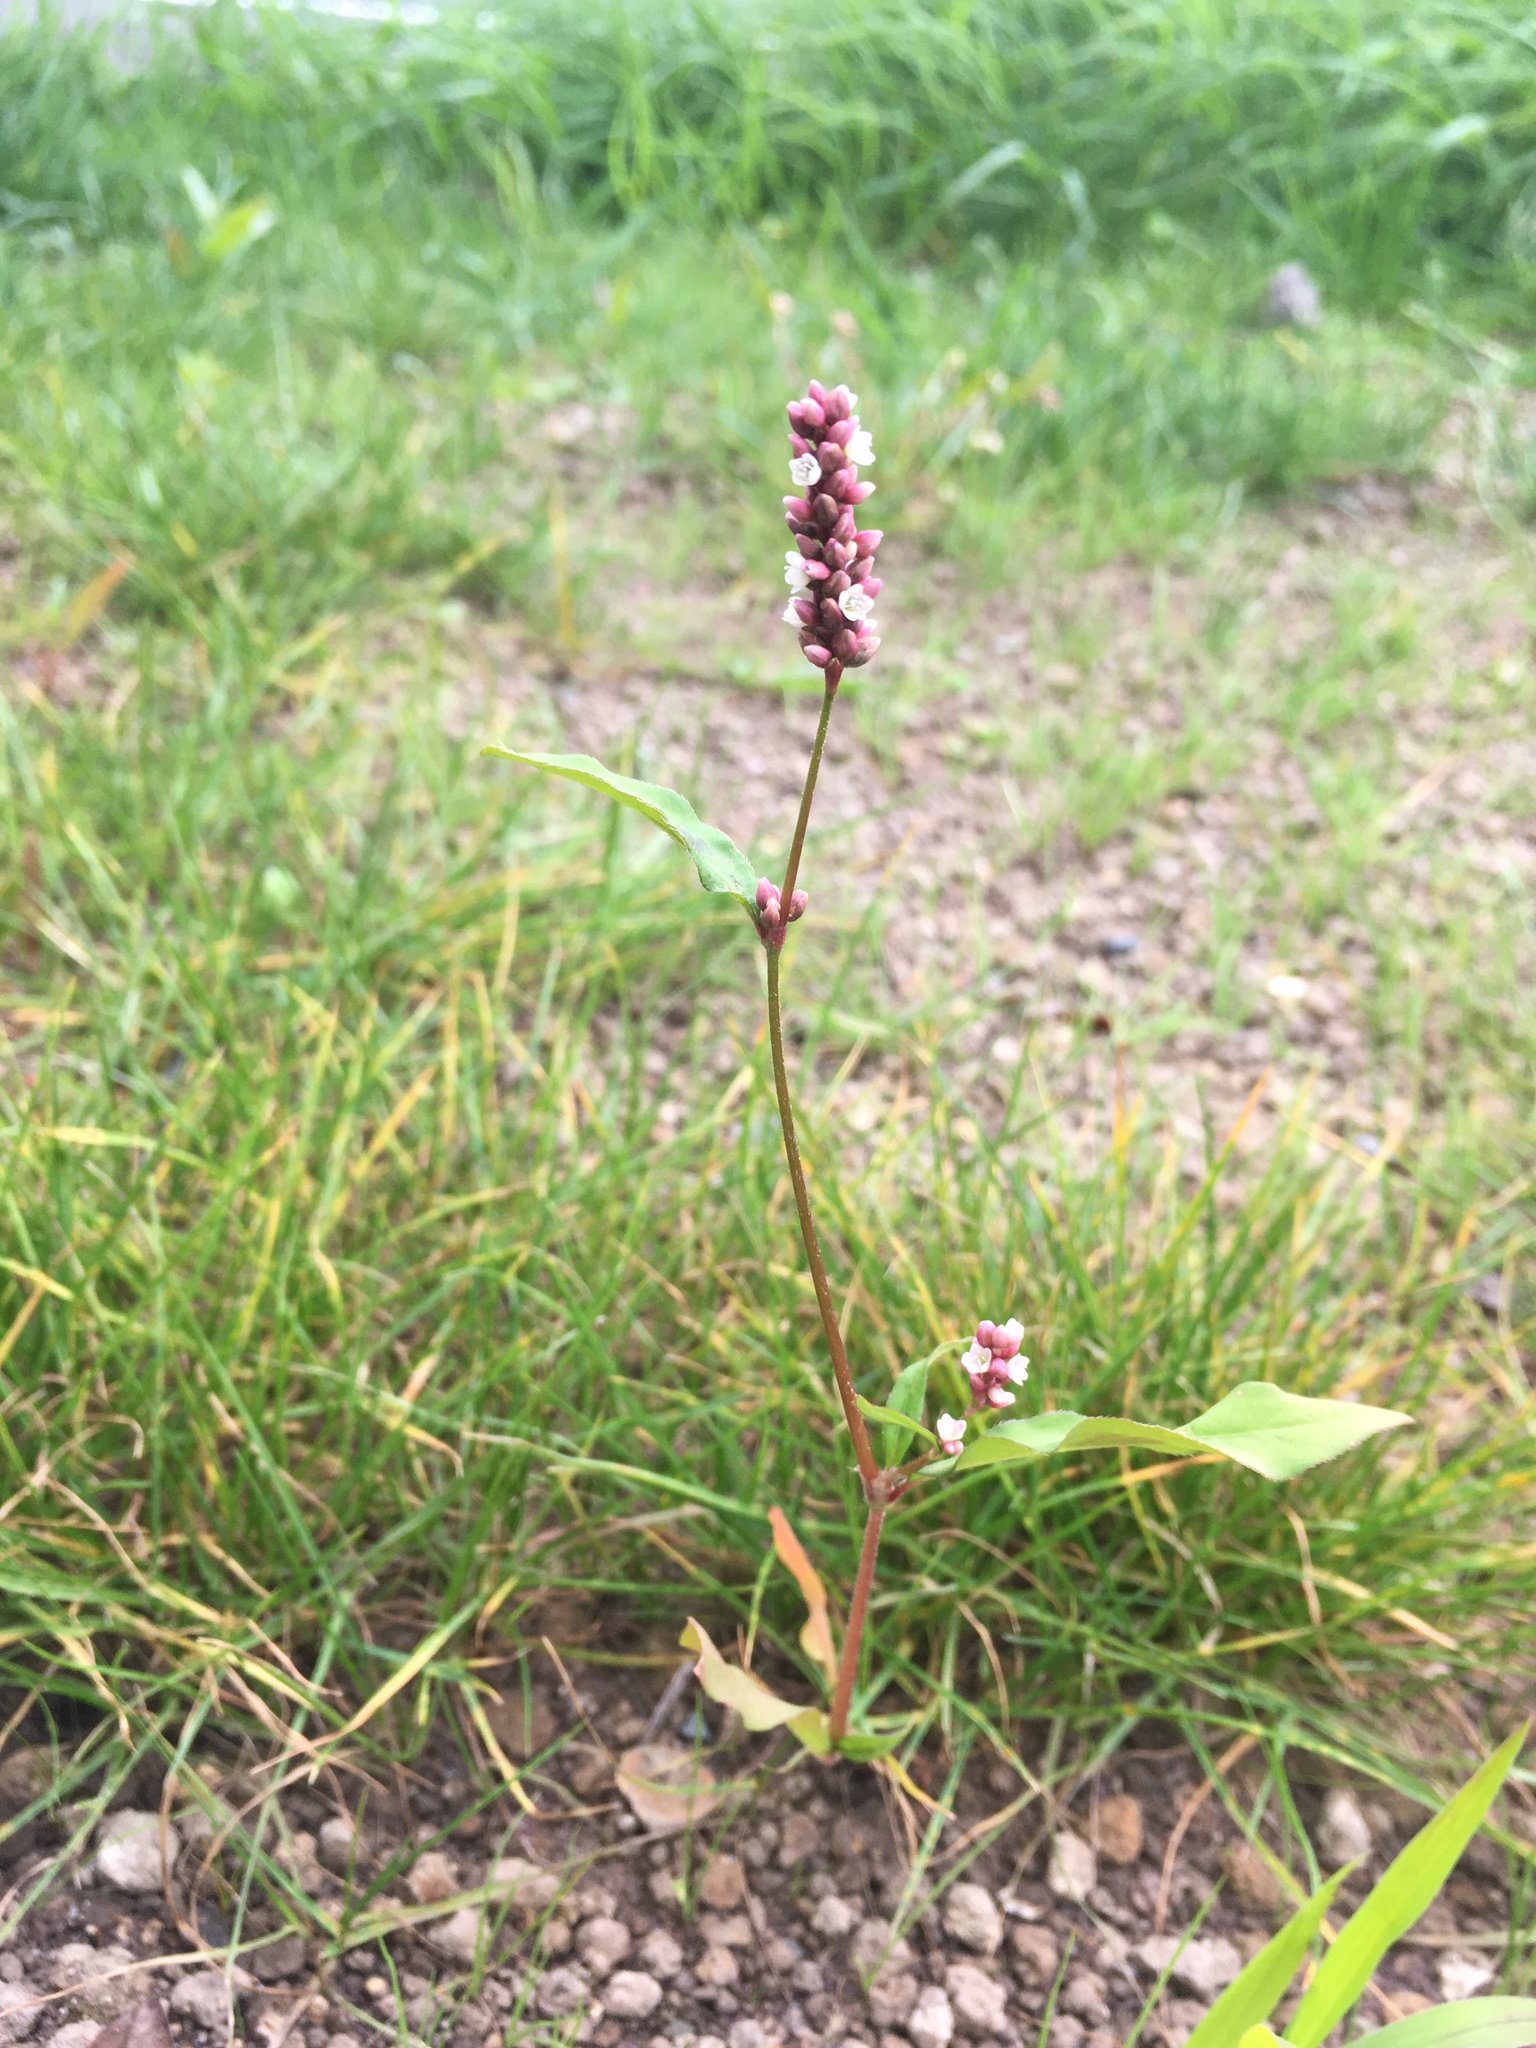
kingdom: Plantae
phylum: Tracheophyta
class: Magnoliopsida
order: Caryophyllales
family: Polygonaceae
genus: Persicaria
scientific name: Persicaria maculosa
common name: Redshank
